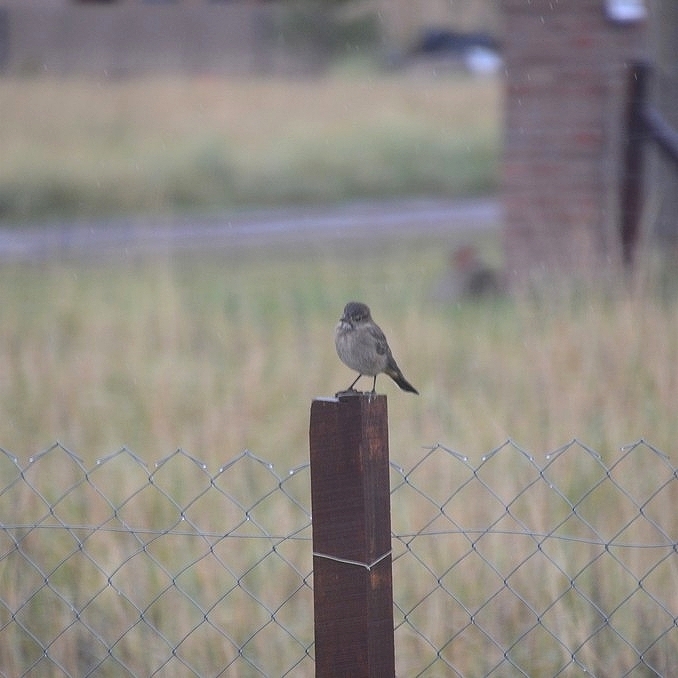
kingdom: Animalia
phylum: Chordata
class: Aves
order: Passeriformes
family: Tyrannidae
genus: Agriornis
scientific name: Agriornis montanus
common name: Black-billed shrike-tyrant
